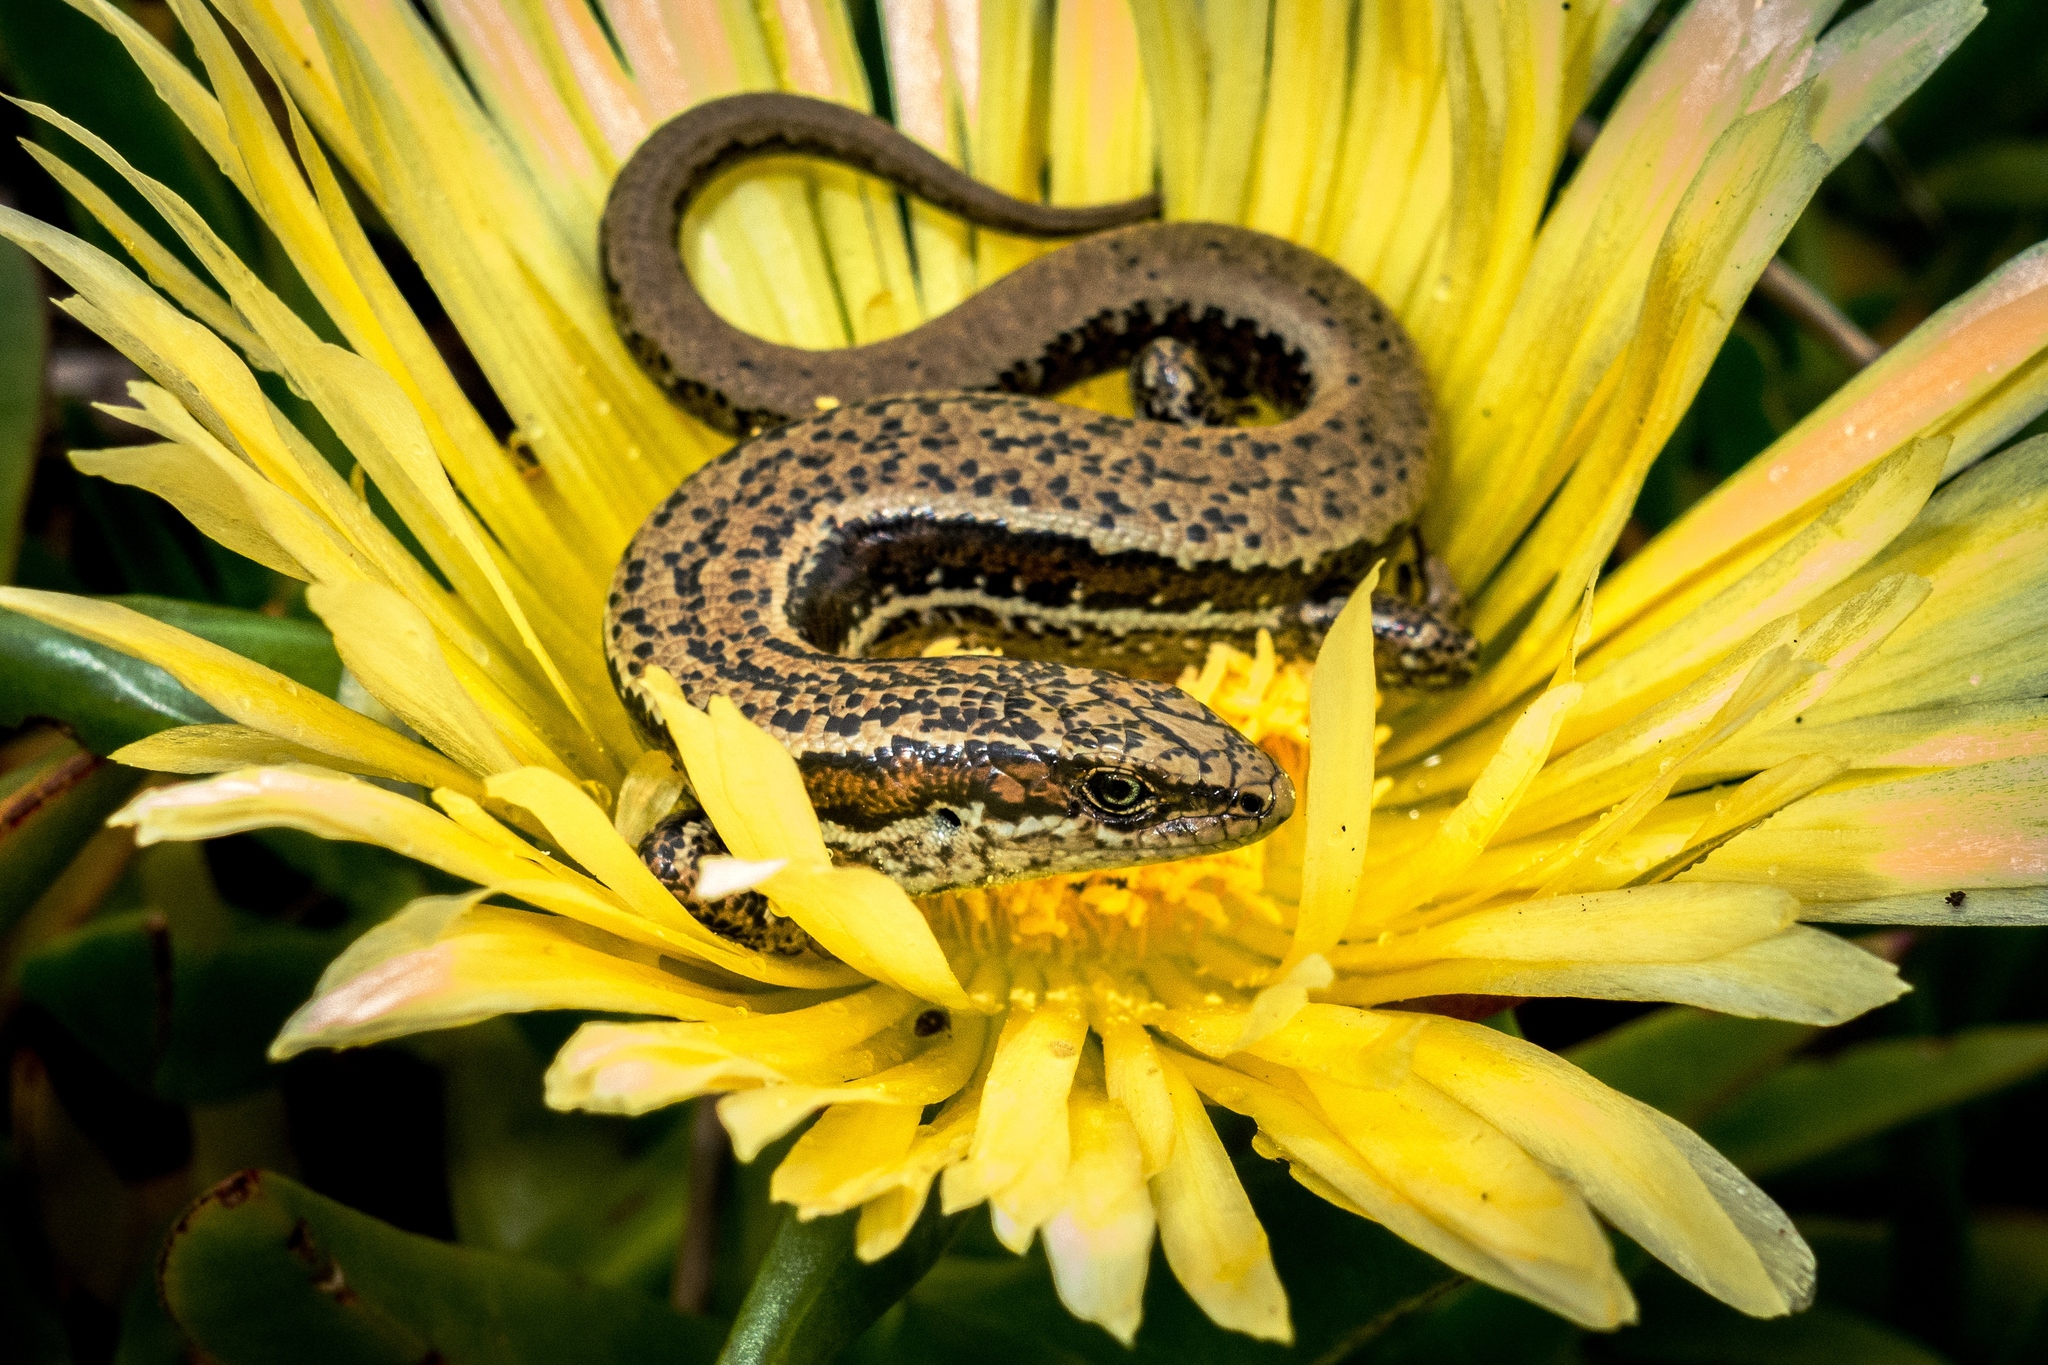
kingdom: Animalia
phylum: Chordata
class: Squamata
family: Scincidae
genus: Oligosoma
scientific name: Oligosoma inconspicuum
